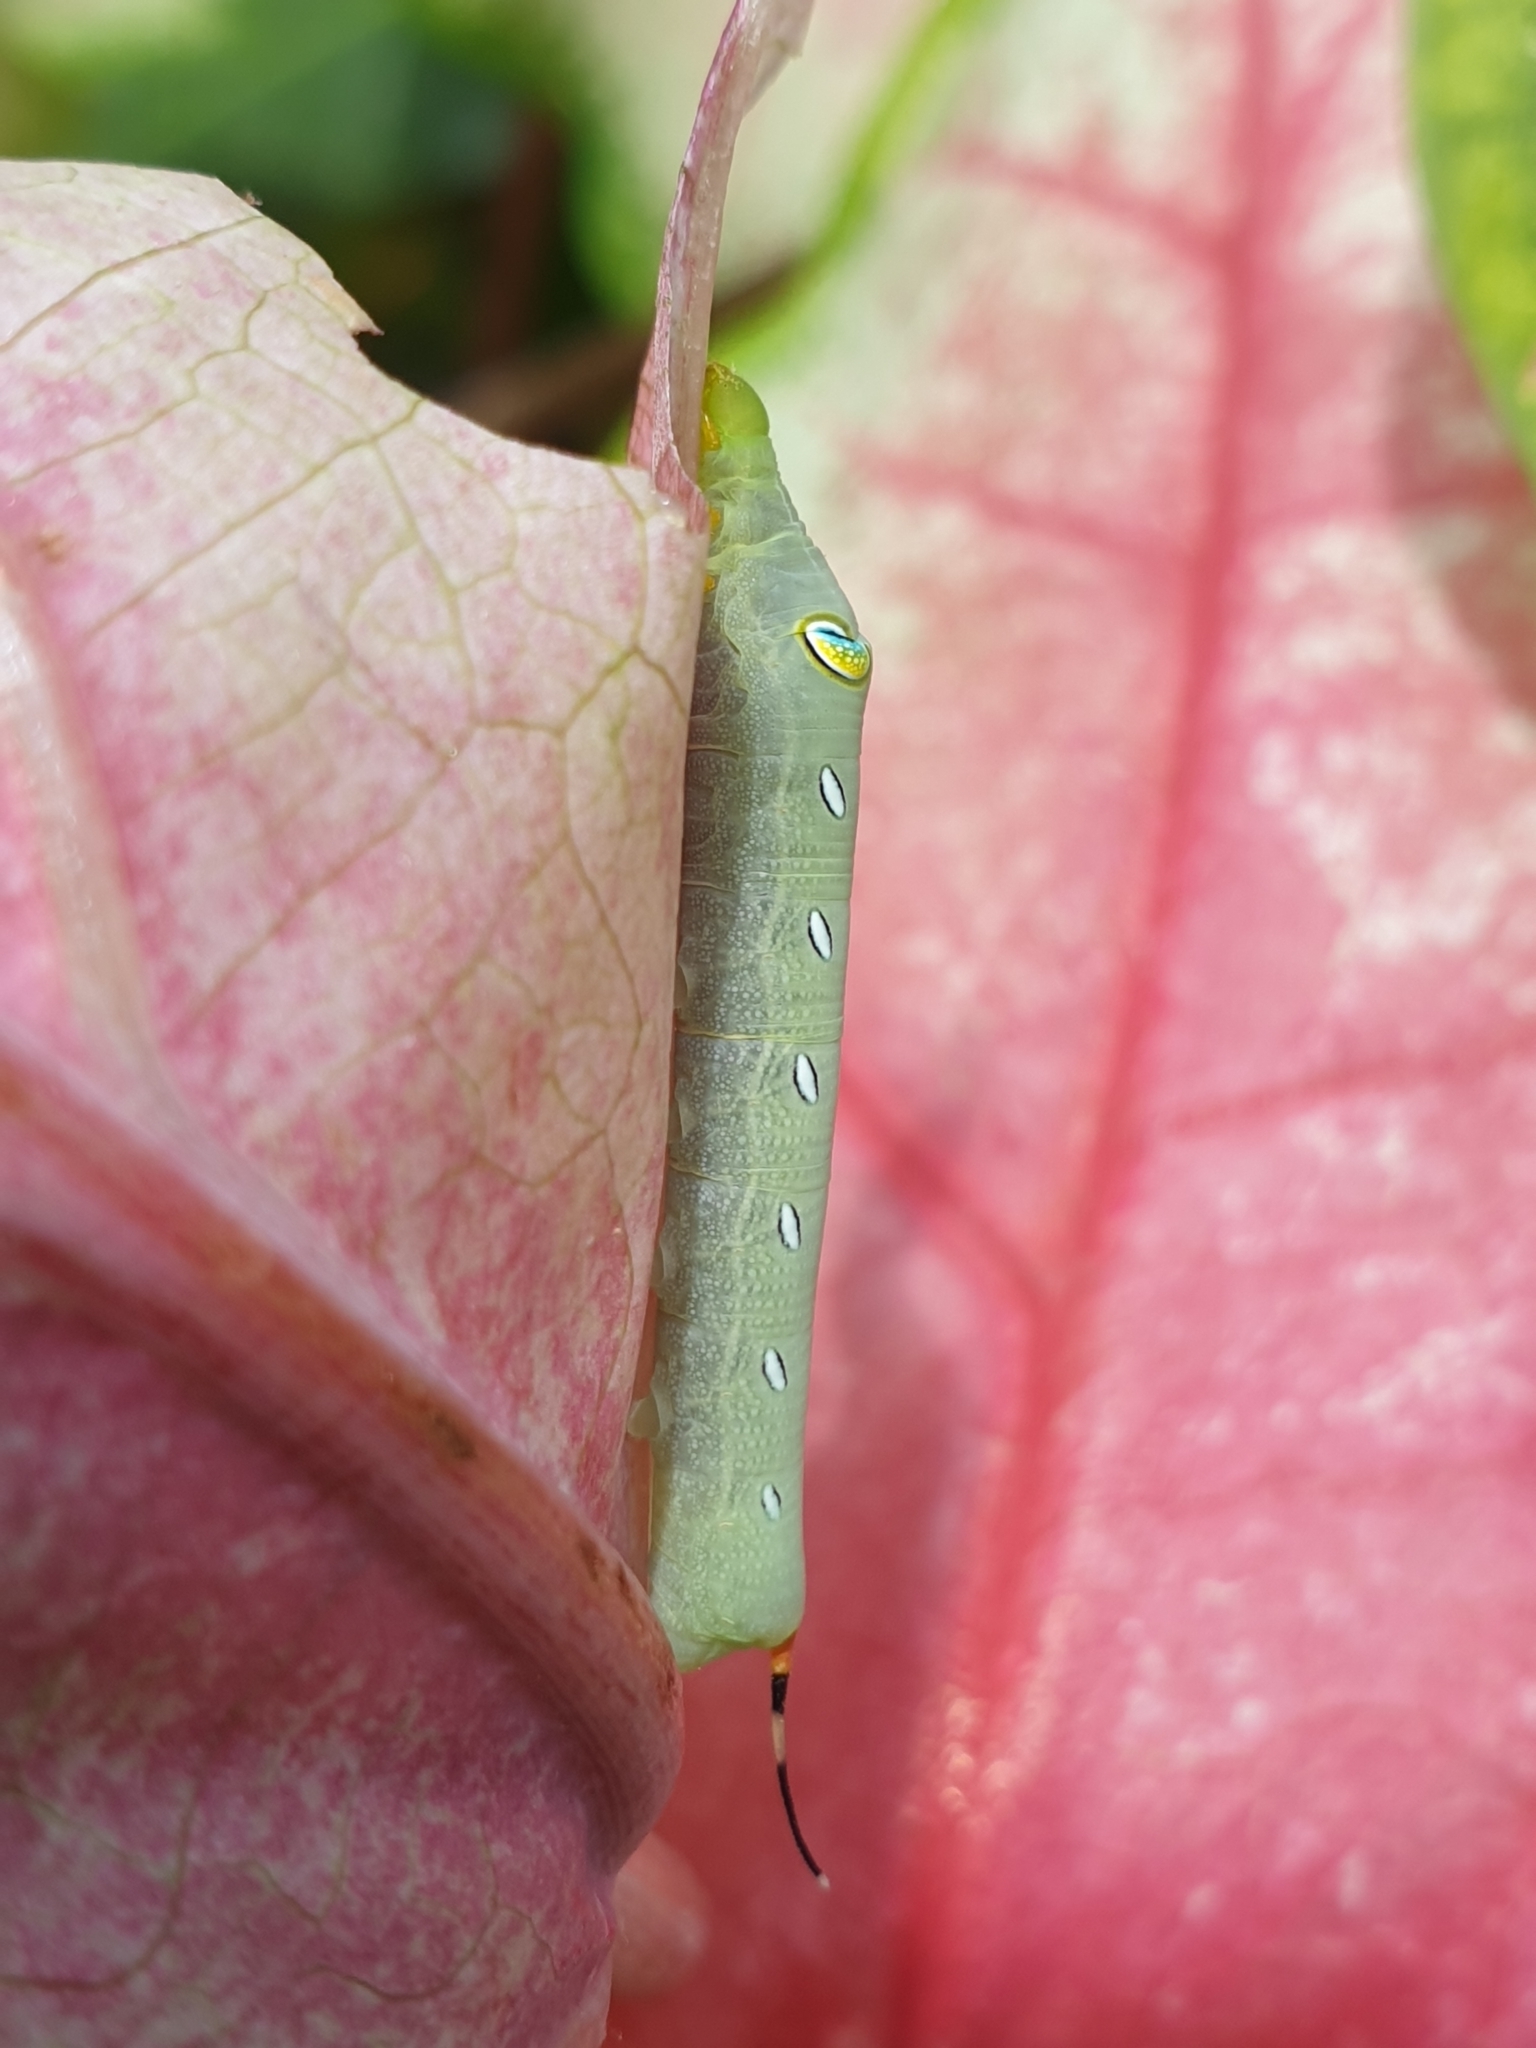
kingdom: Animalia
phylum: Arthropoda
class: Insecta
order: Lepidoptera
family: Sphingidae
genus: Pergesa
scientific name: Pergesa acteus
